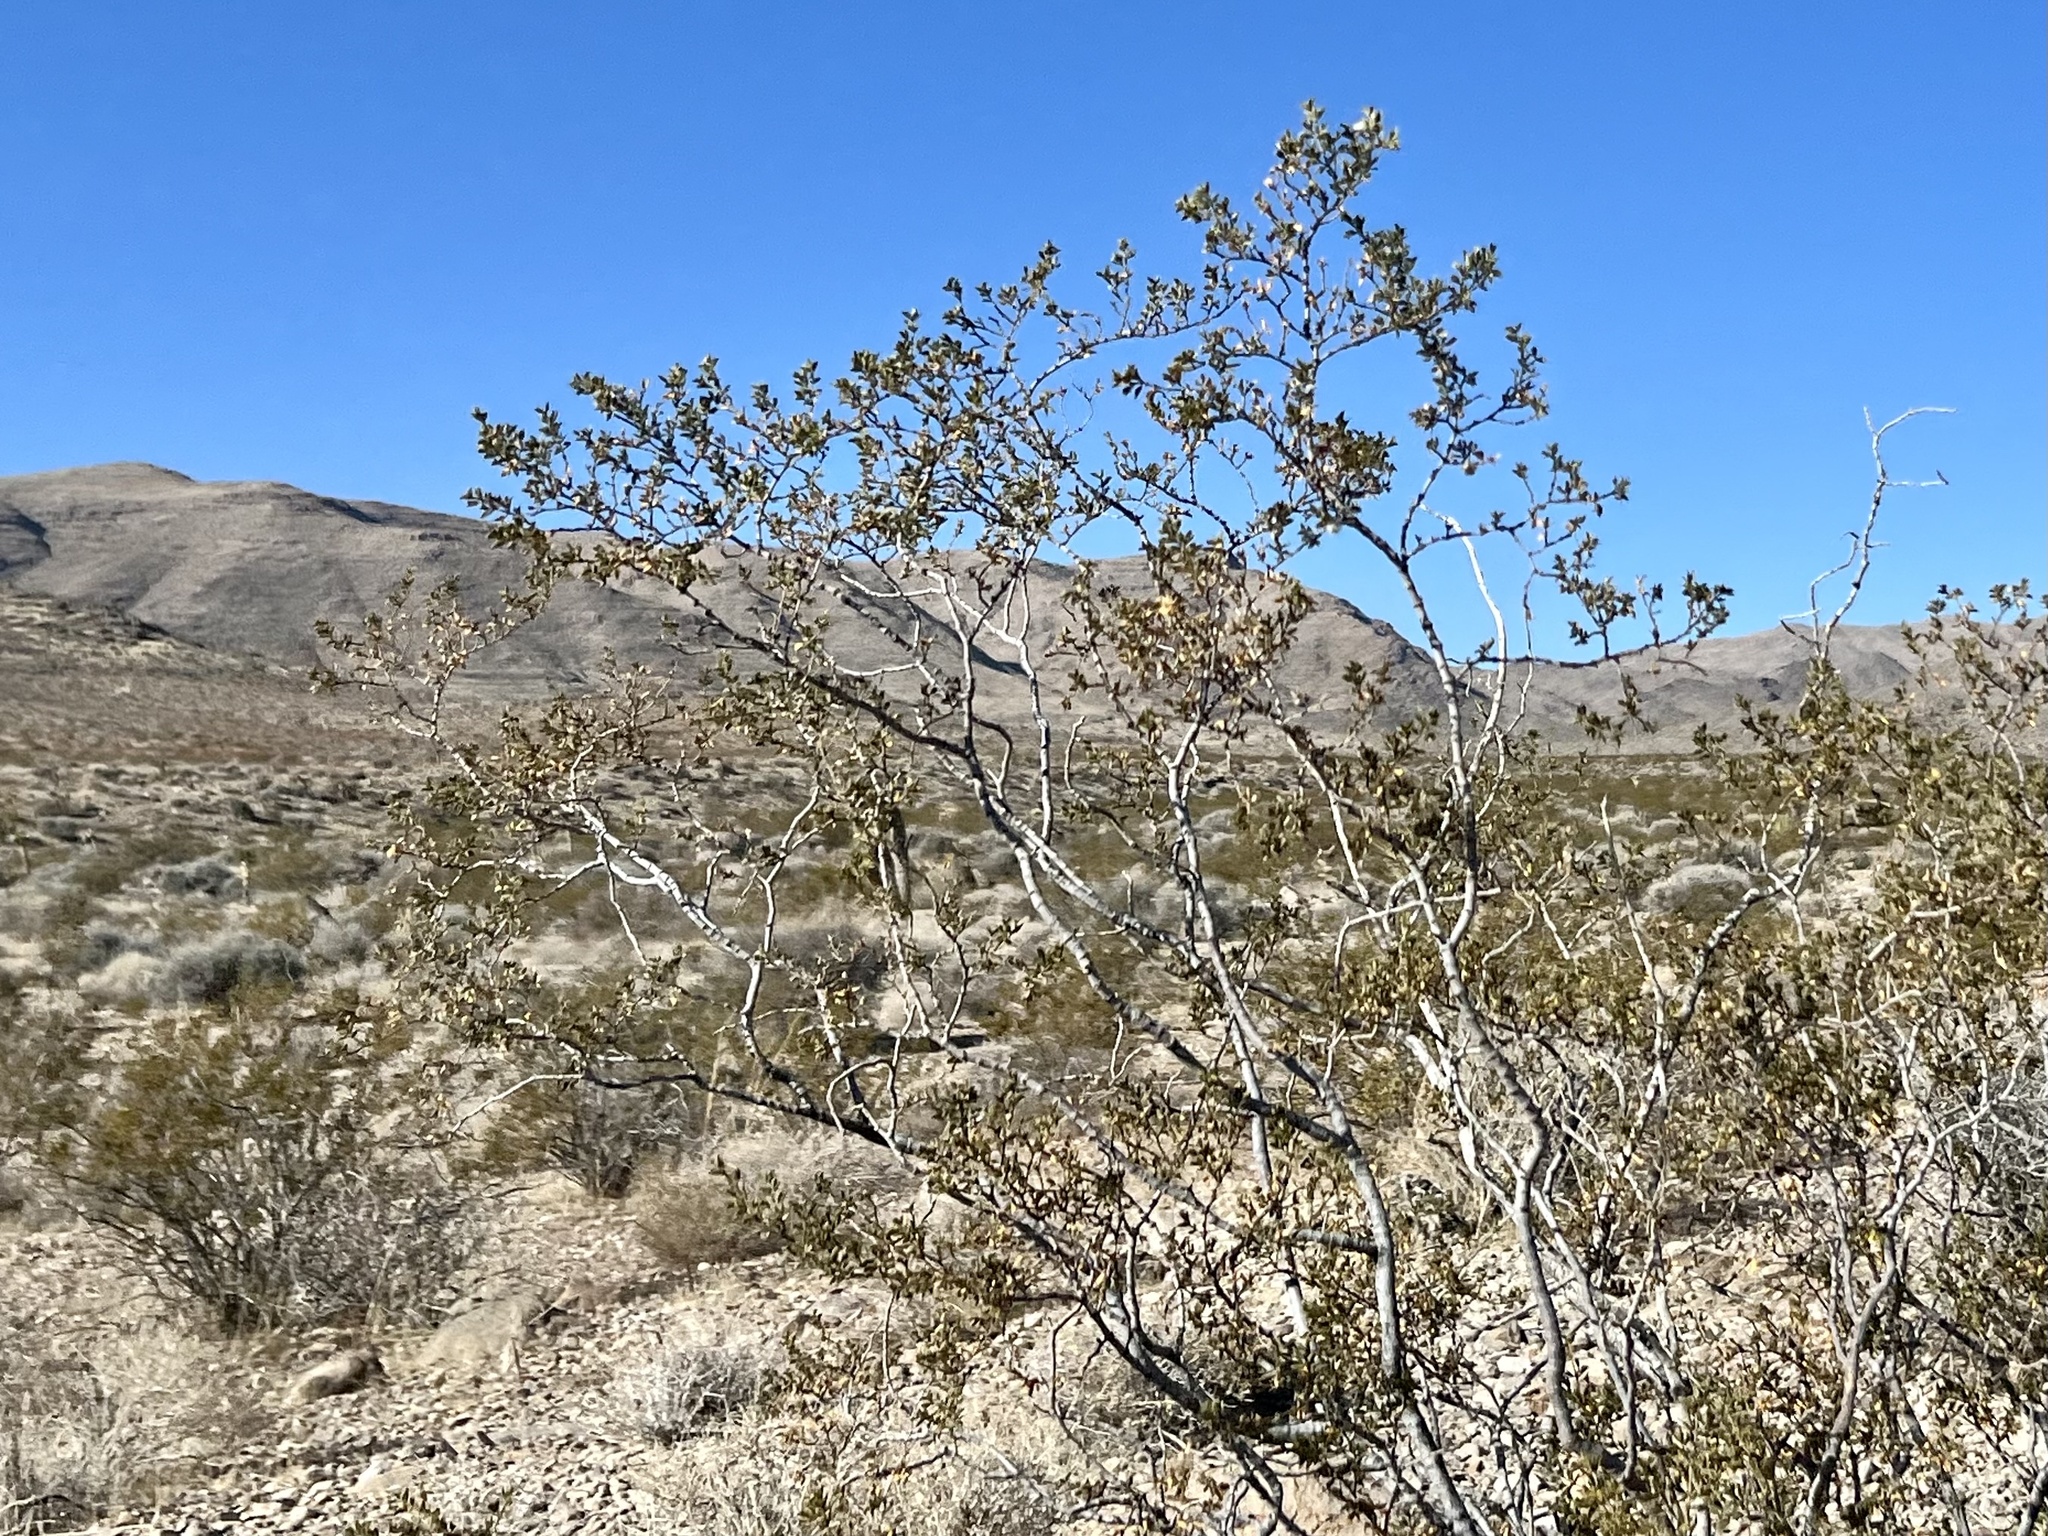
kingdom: Plantae
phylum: Tracheophyta
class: Magnoliopsida
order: Zygophyllales
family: Zygophyllaceae
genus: Larrea
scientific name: Larrea tridentata
